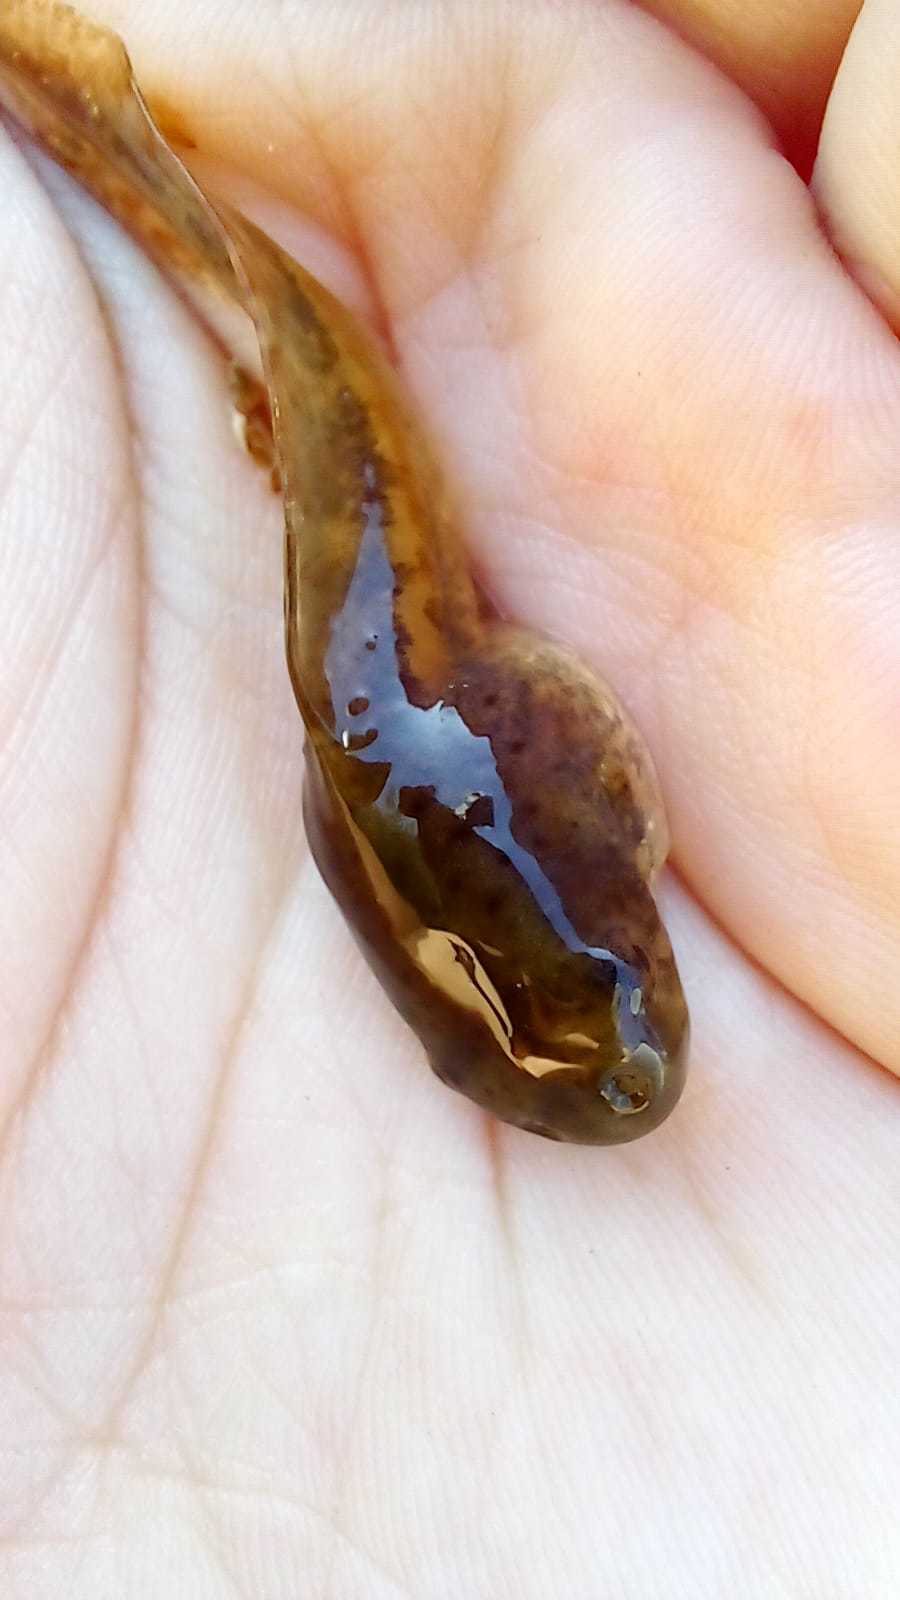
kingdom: Animalia
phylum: Chordata
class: Amphibia
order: Anura
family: Hylidae
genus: Boana
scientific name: Boana pulchella
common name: Montevideo treefrog
